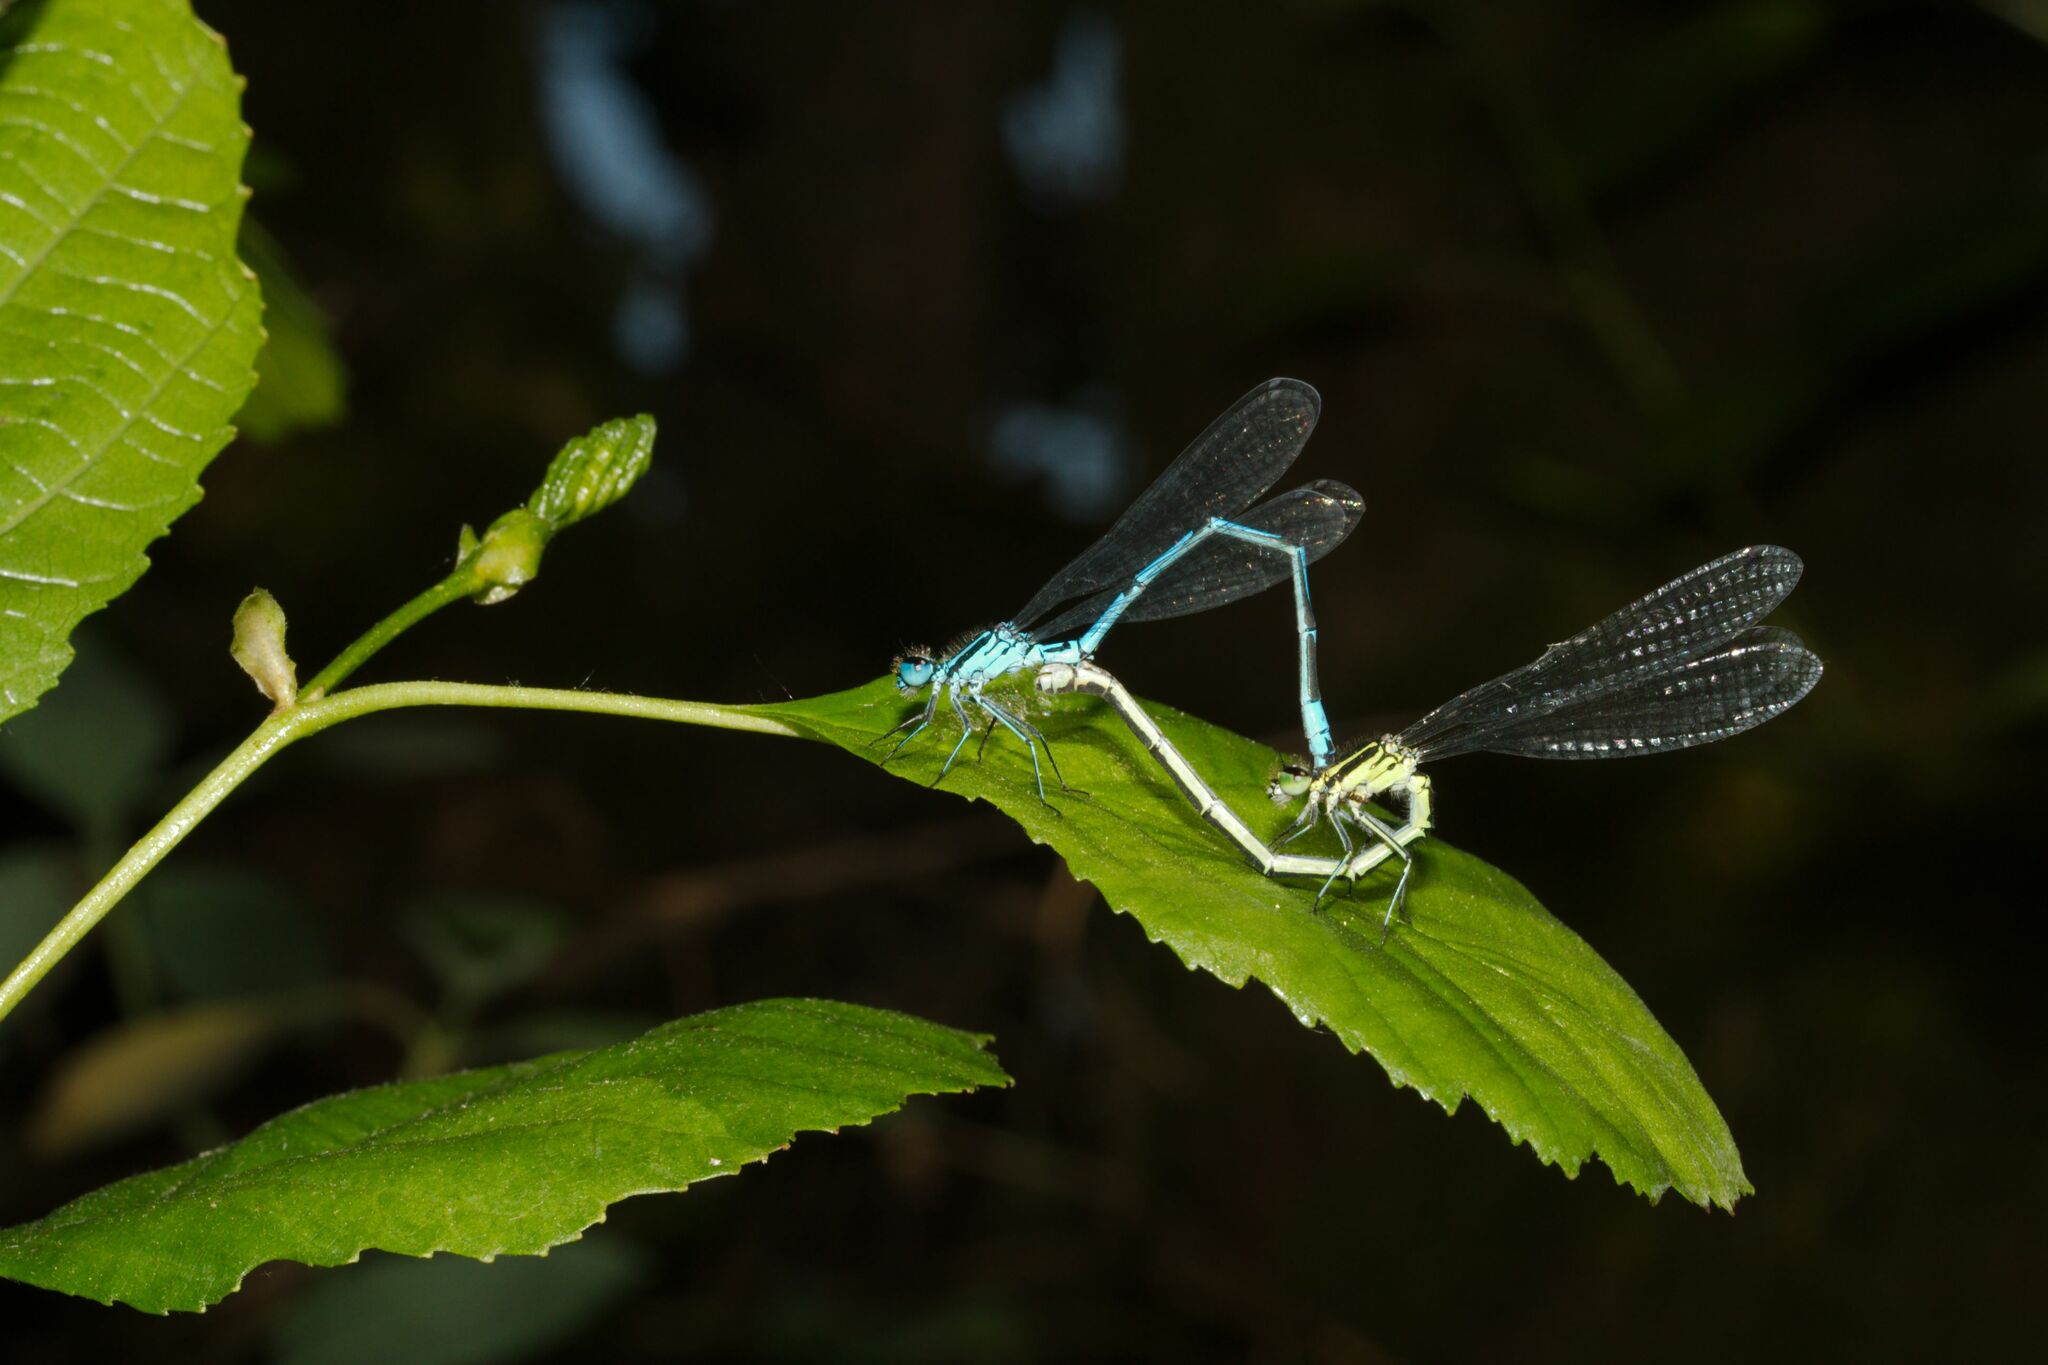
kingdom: Animalia
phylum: Arthropoda
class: Insecta
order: Odonata
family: Coenagrionidae
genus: Coenagrion
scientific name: Coenagrion puella
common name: Azure damselfly
